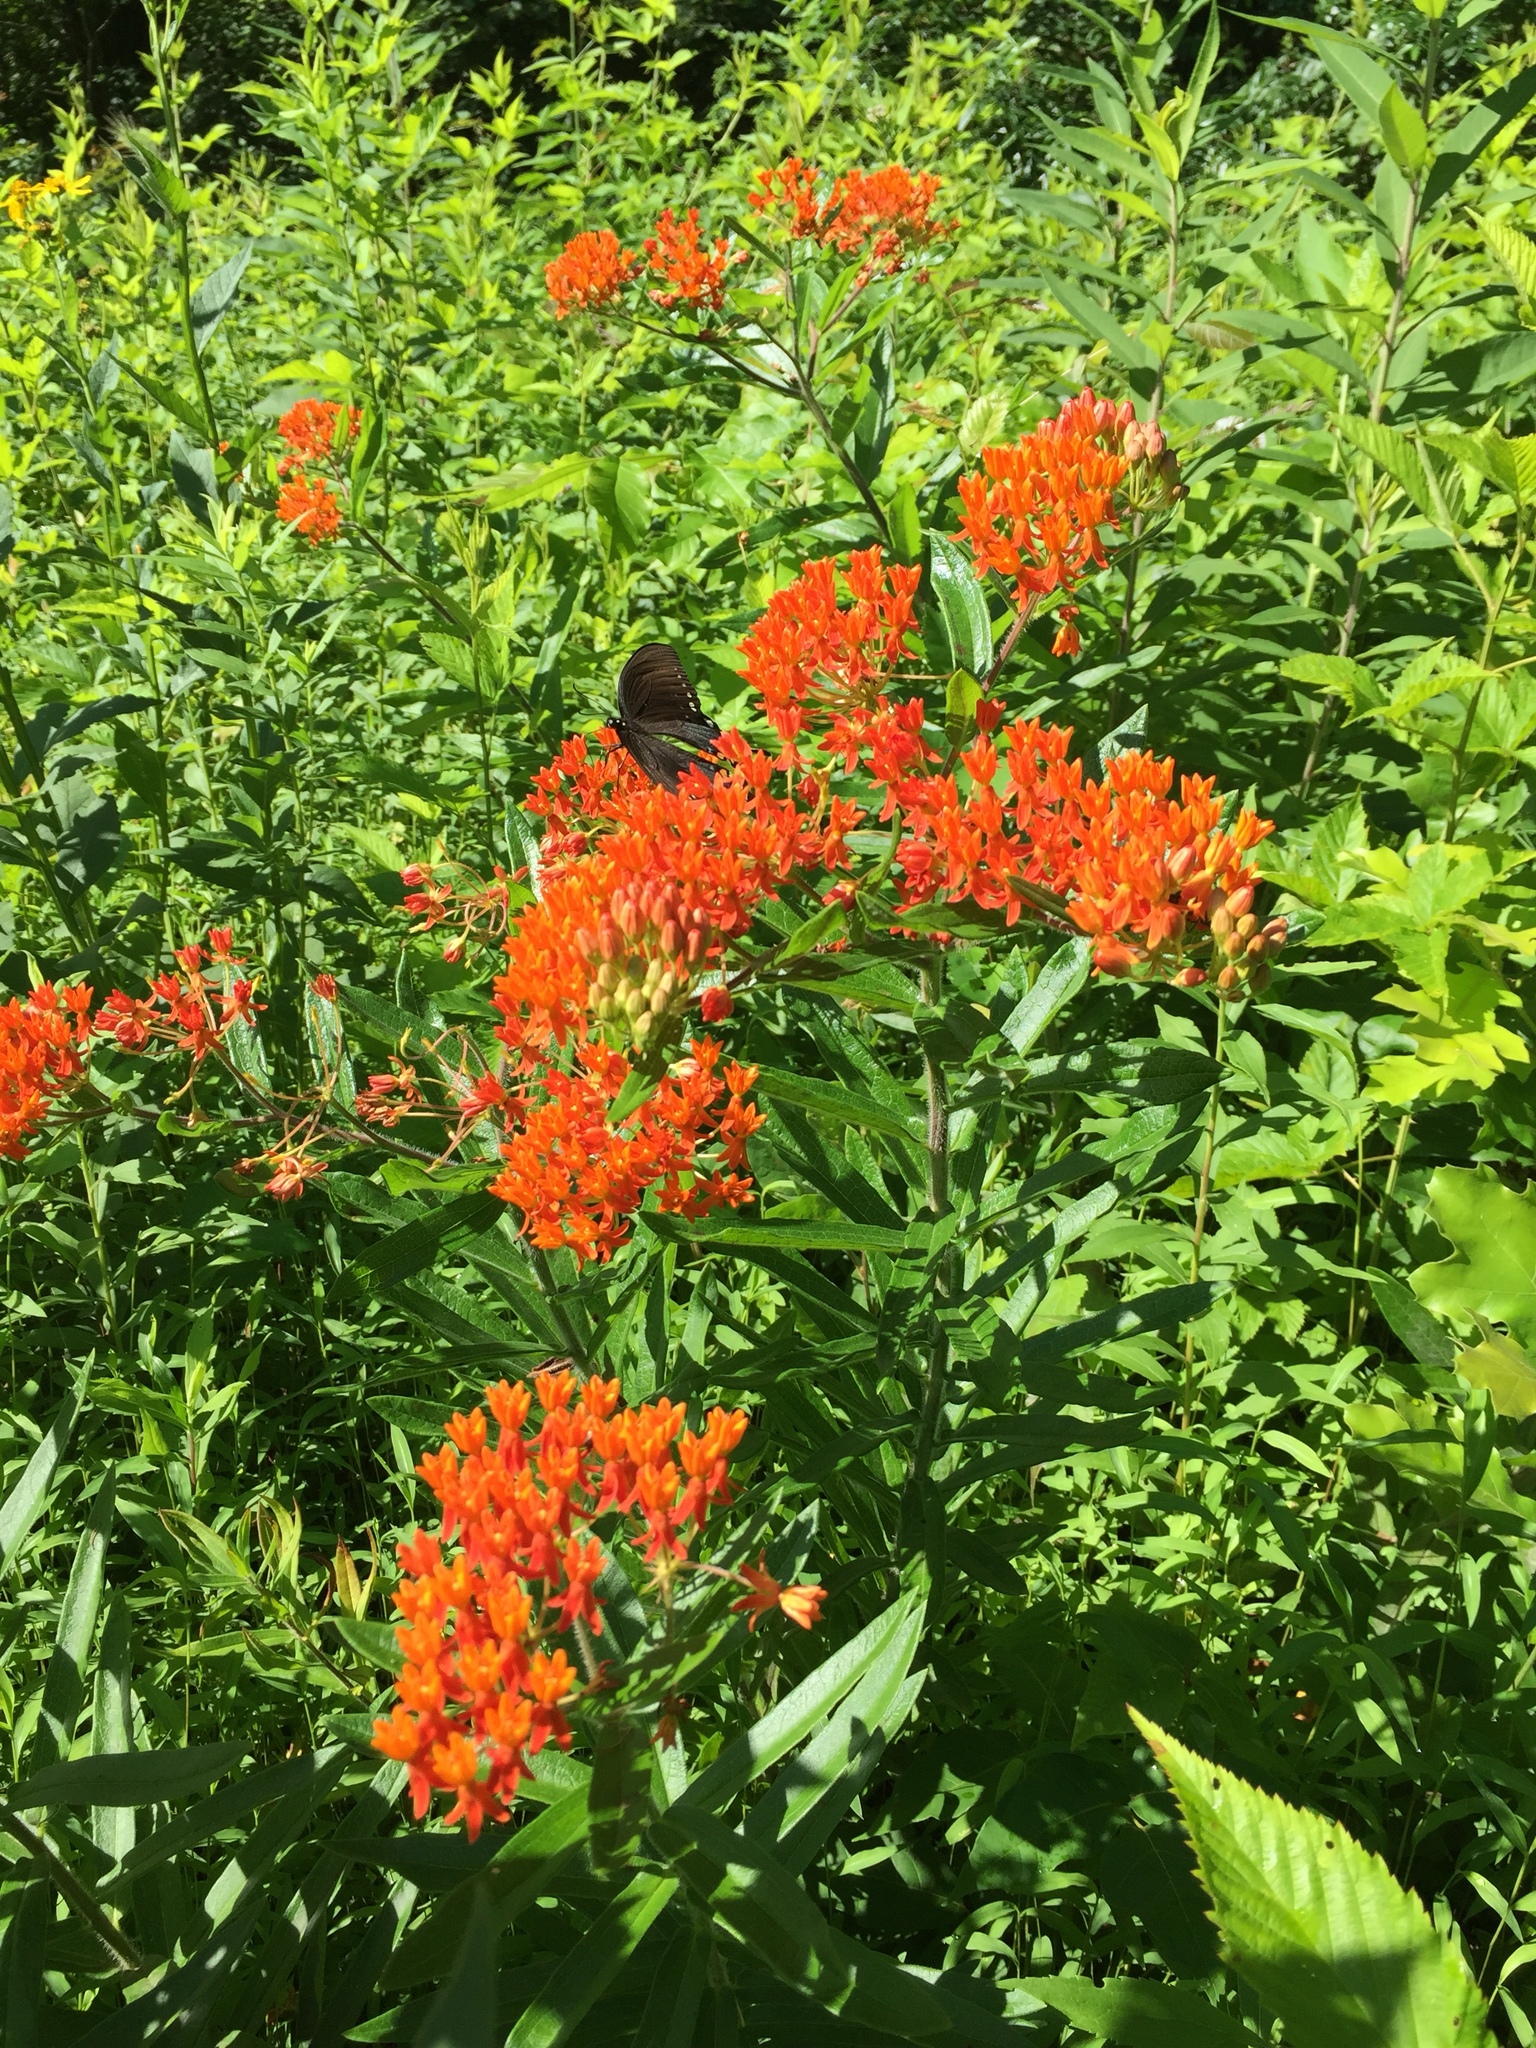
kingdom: Plantae
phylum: Tracheophyta
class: Magnoliopsida
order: Gentianales
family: Apocynaceae
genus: Asclepias
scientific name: Asclepias tuberosa
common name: Butterfly milkweed
